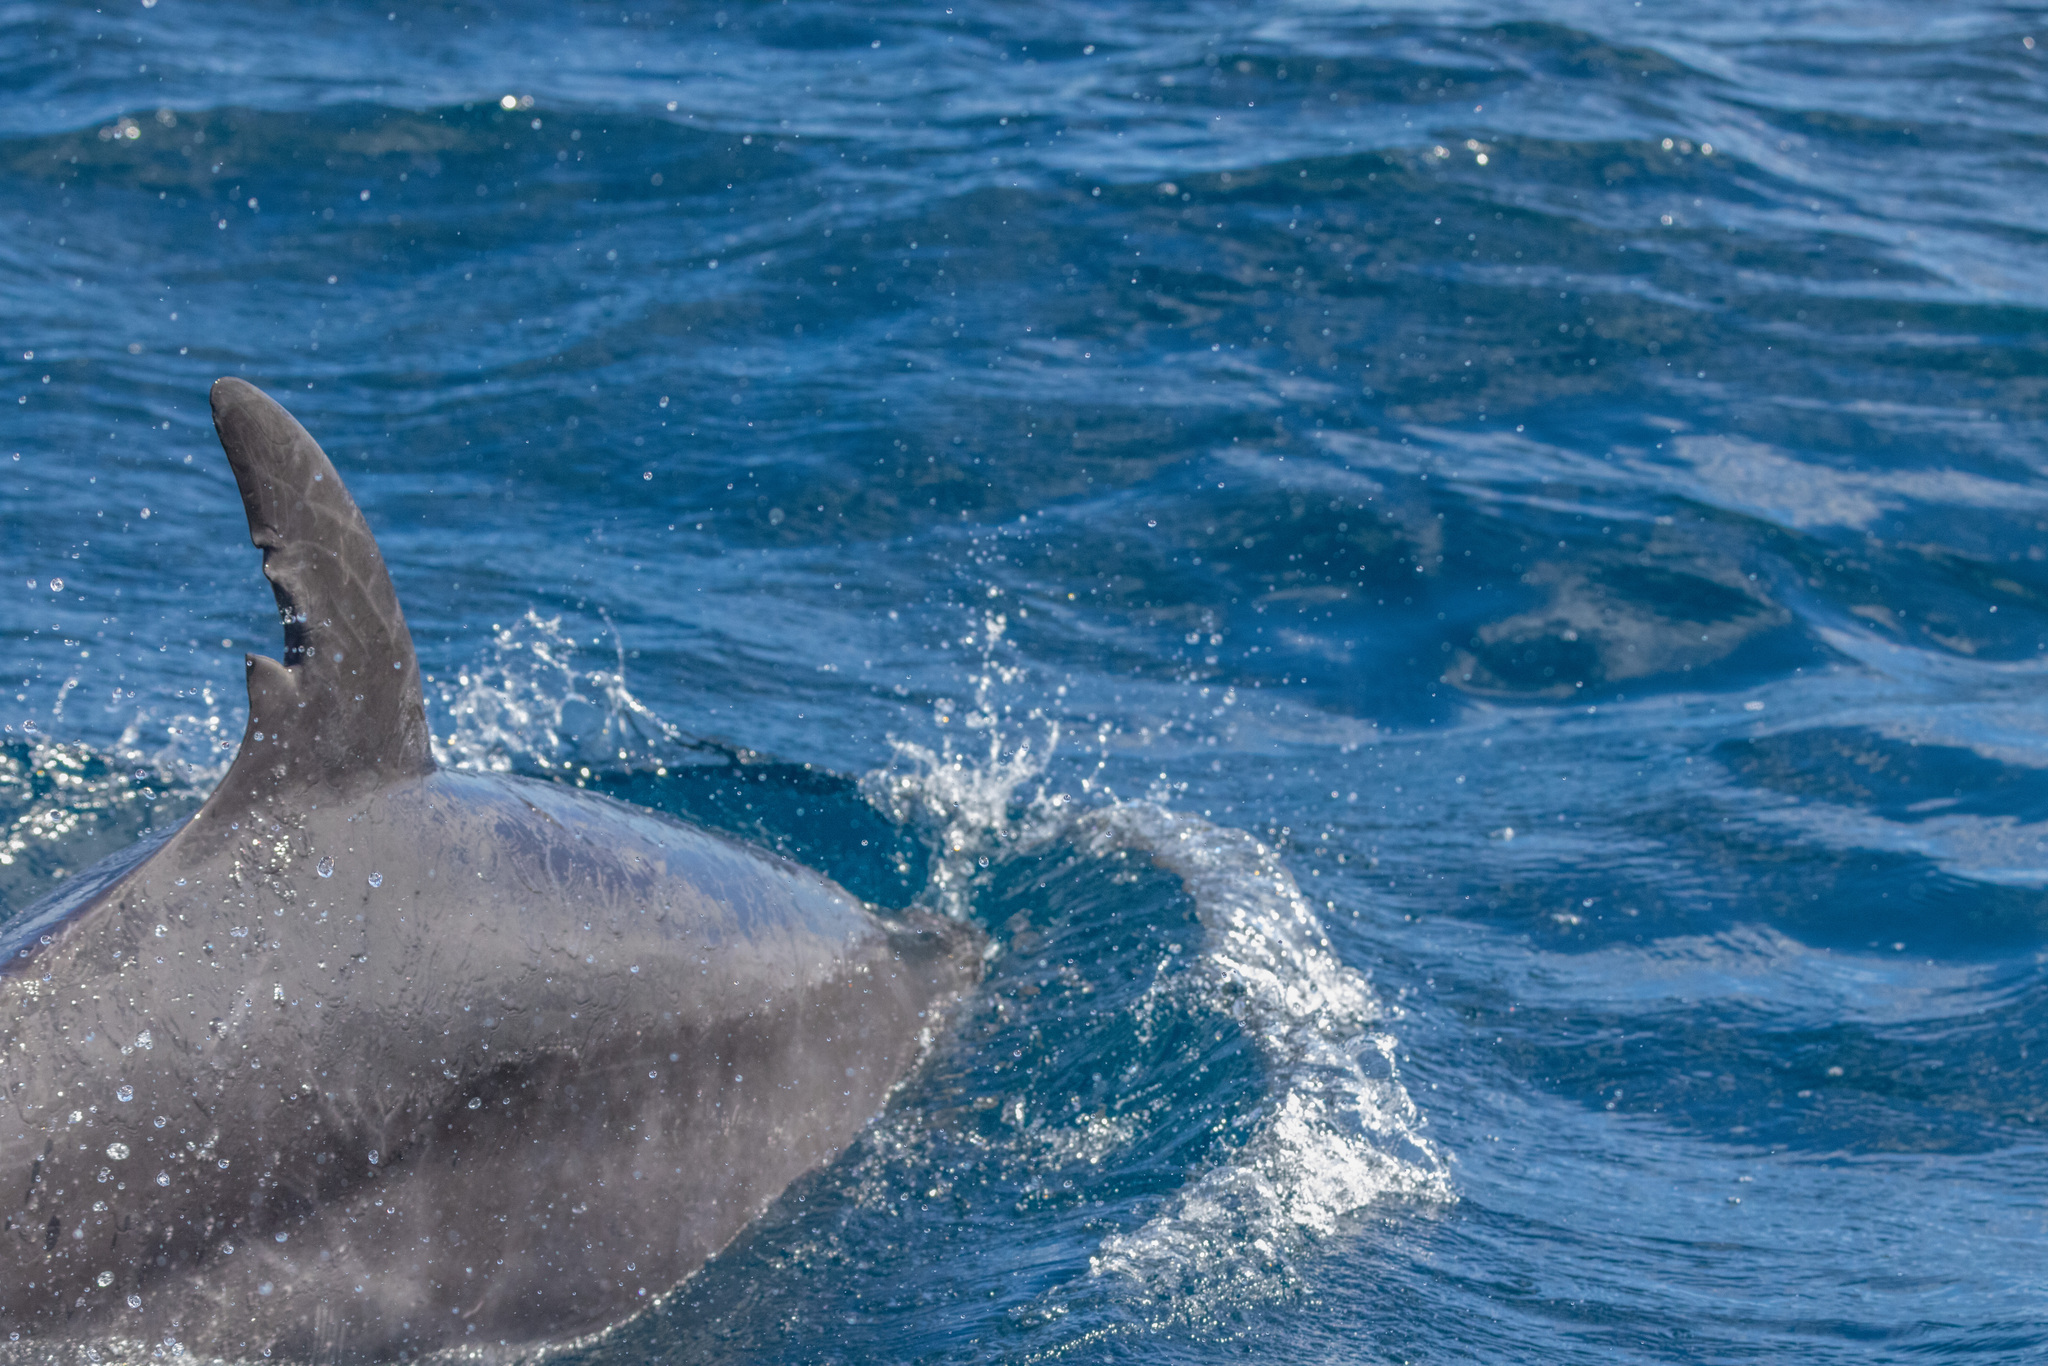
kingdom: Animalia
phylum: Chordata
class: Mammalia
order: Cetacea
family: Delphinidae
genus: Tursiops
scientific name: Tursiops truncatus
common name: Bottlenose dolphin
